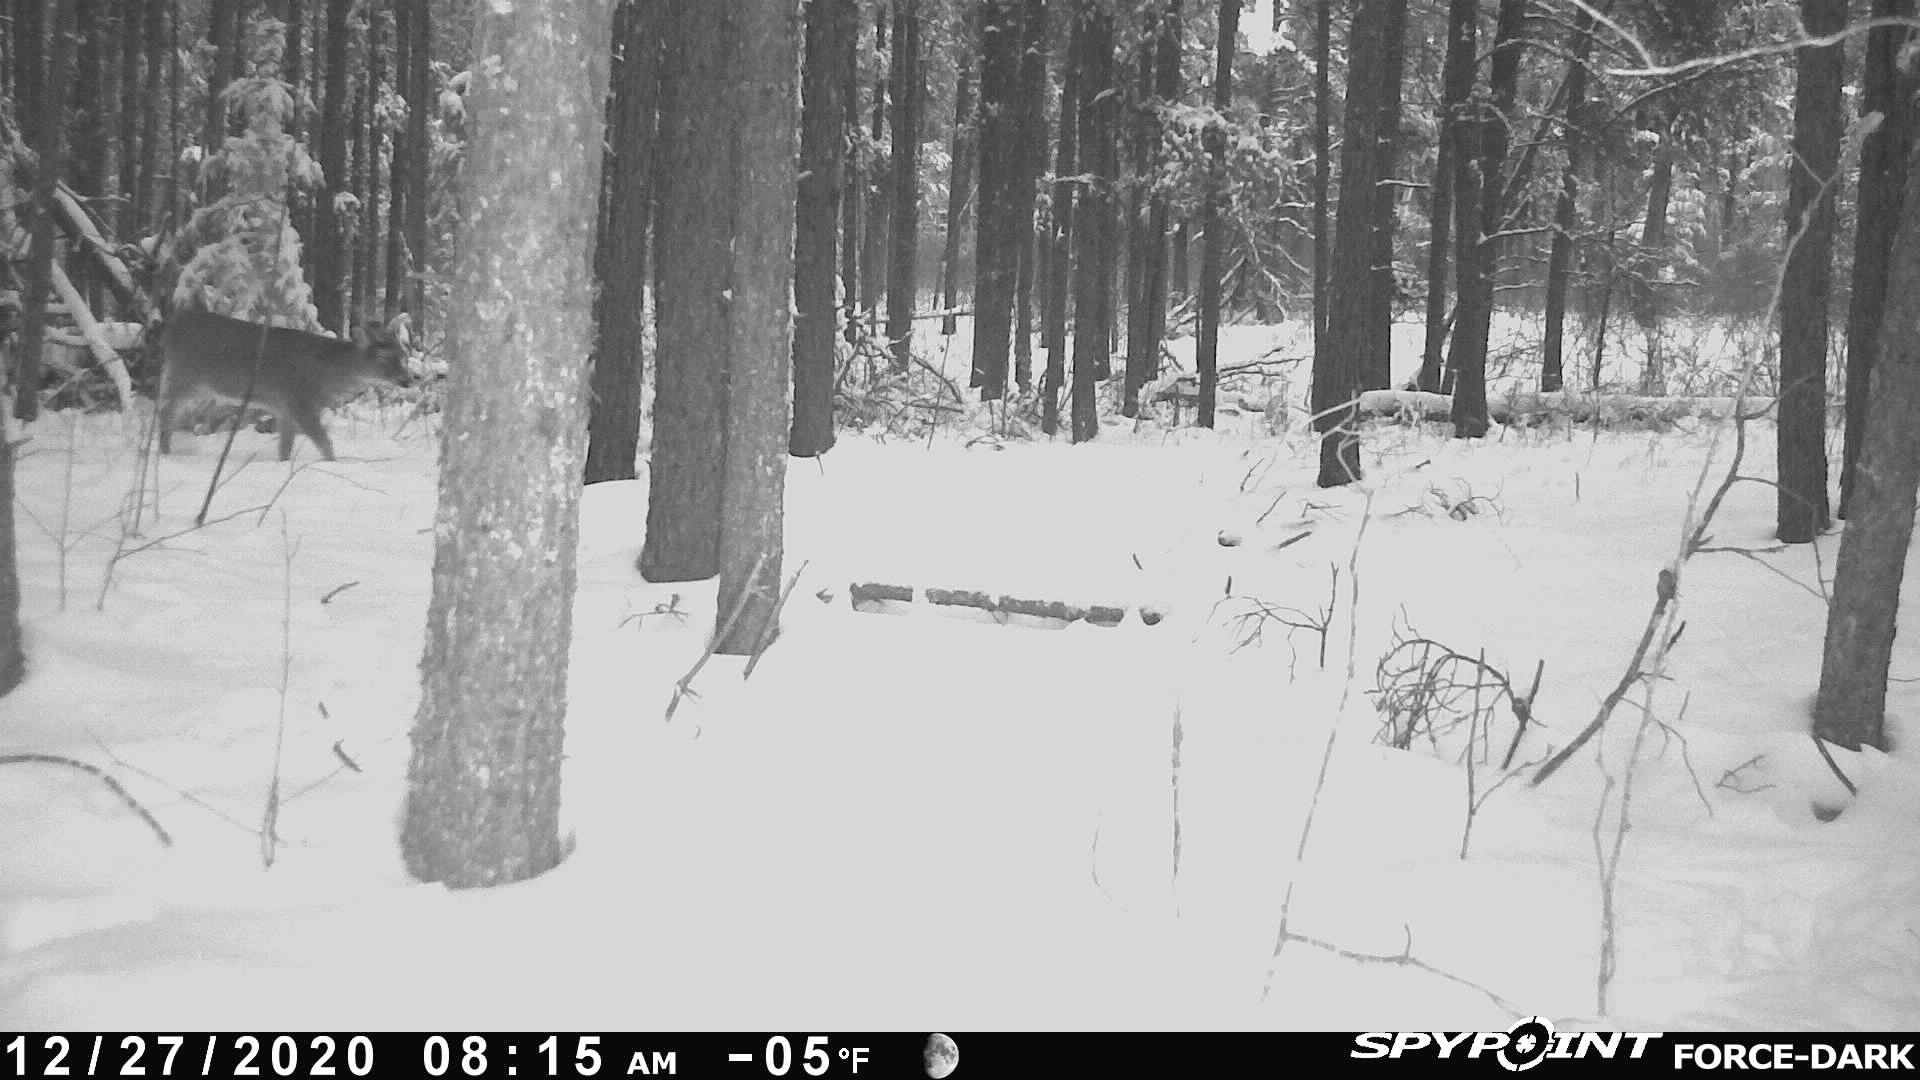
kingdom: Animalia
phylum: Chordata
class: Mammalia
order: Artiodactyla
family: Cervidae
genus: Odocoileus
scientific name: Odocoileus virginianus
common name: White-tailed deer
